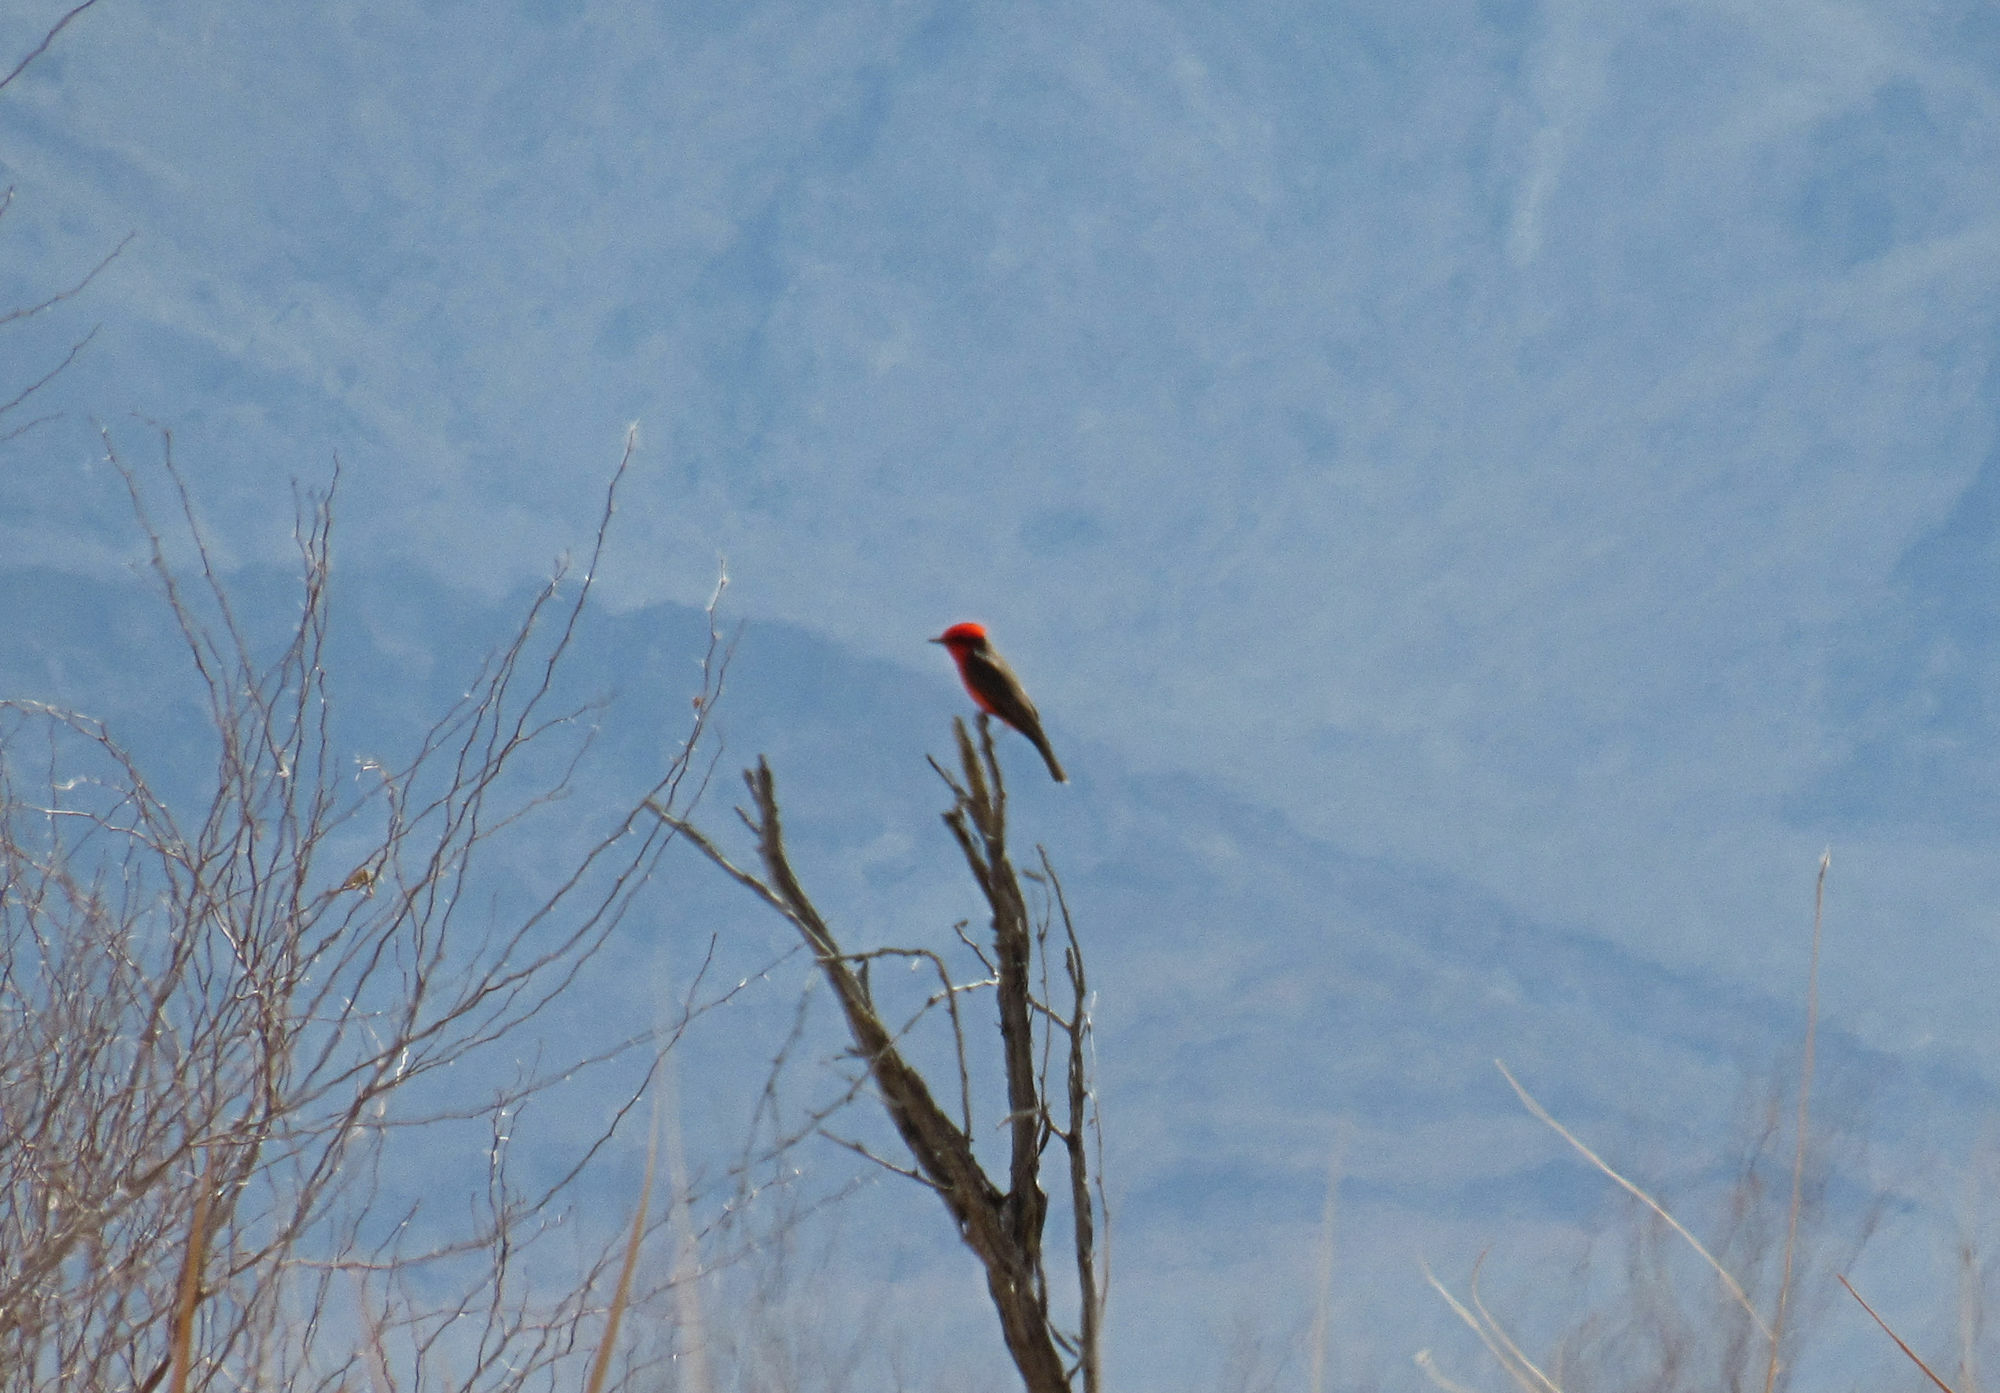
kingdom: Animalia
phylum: Chordata
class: Aves
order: Passeriformes
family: Tyrannidae
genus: Pyrocephalus
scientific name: Pyrocephalus rubinus
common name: Vermilion flycatcher
